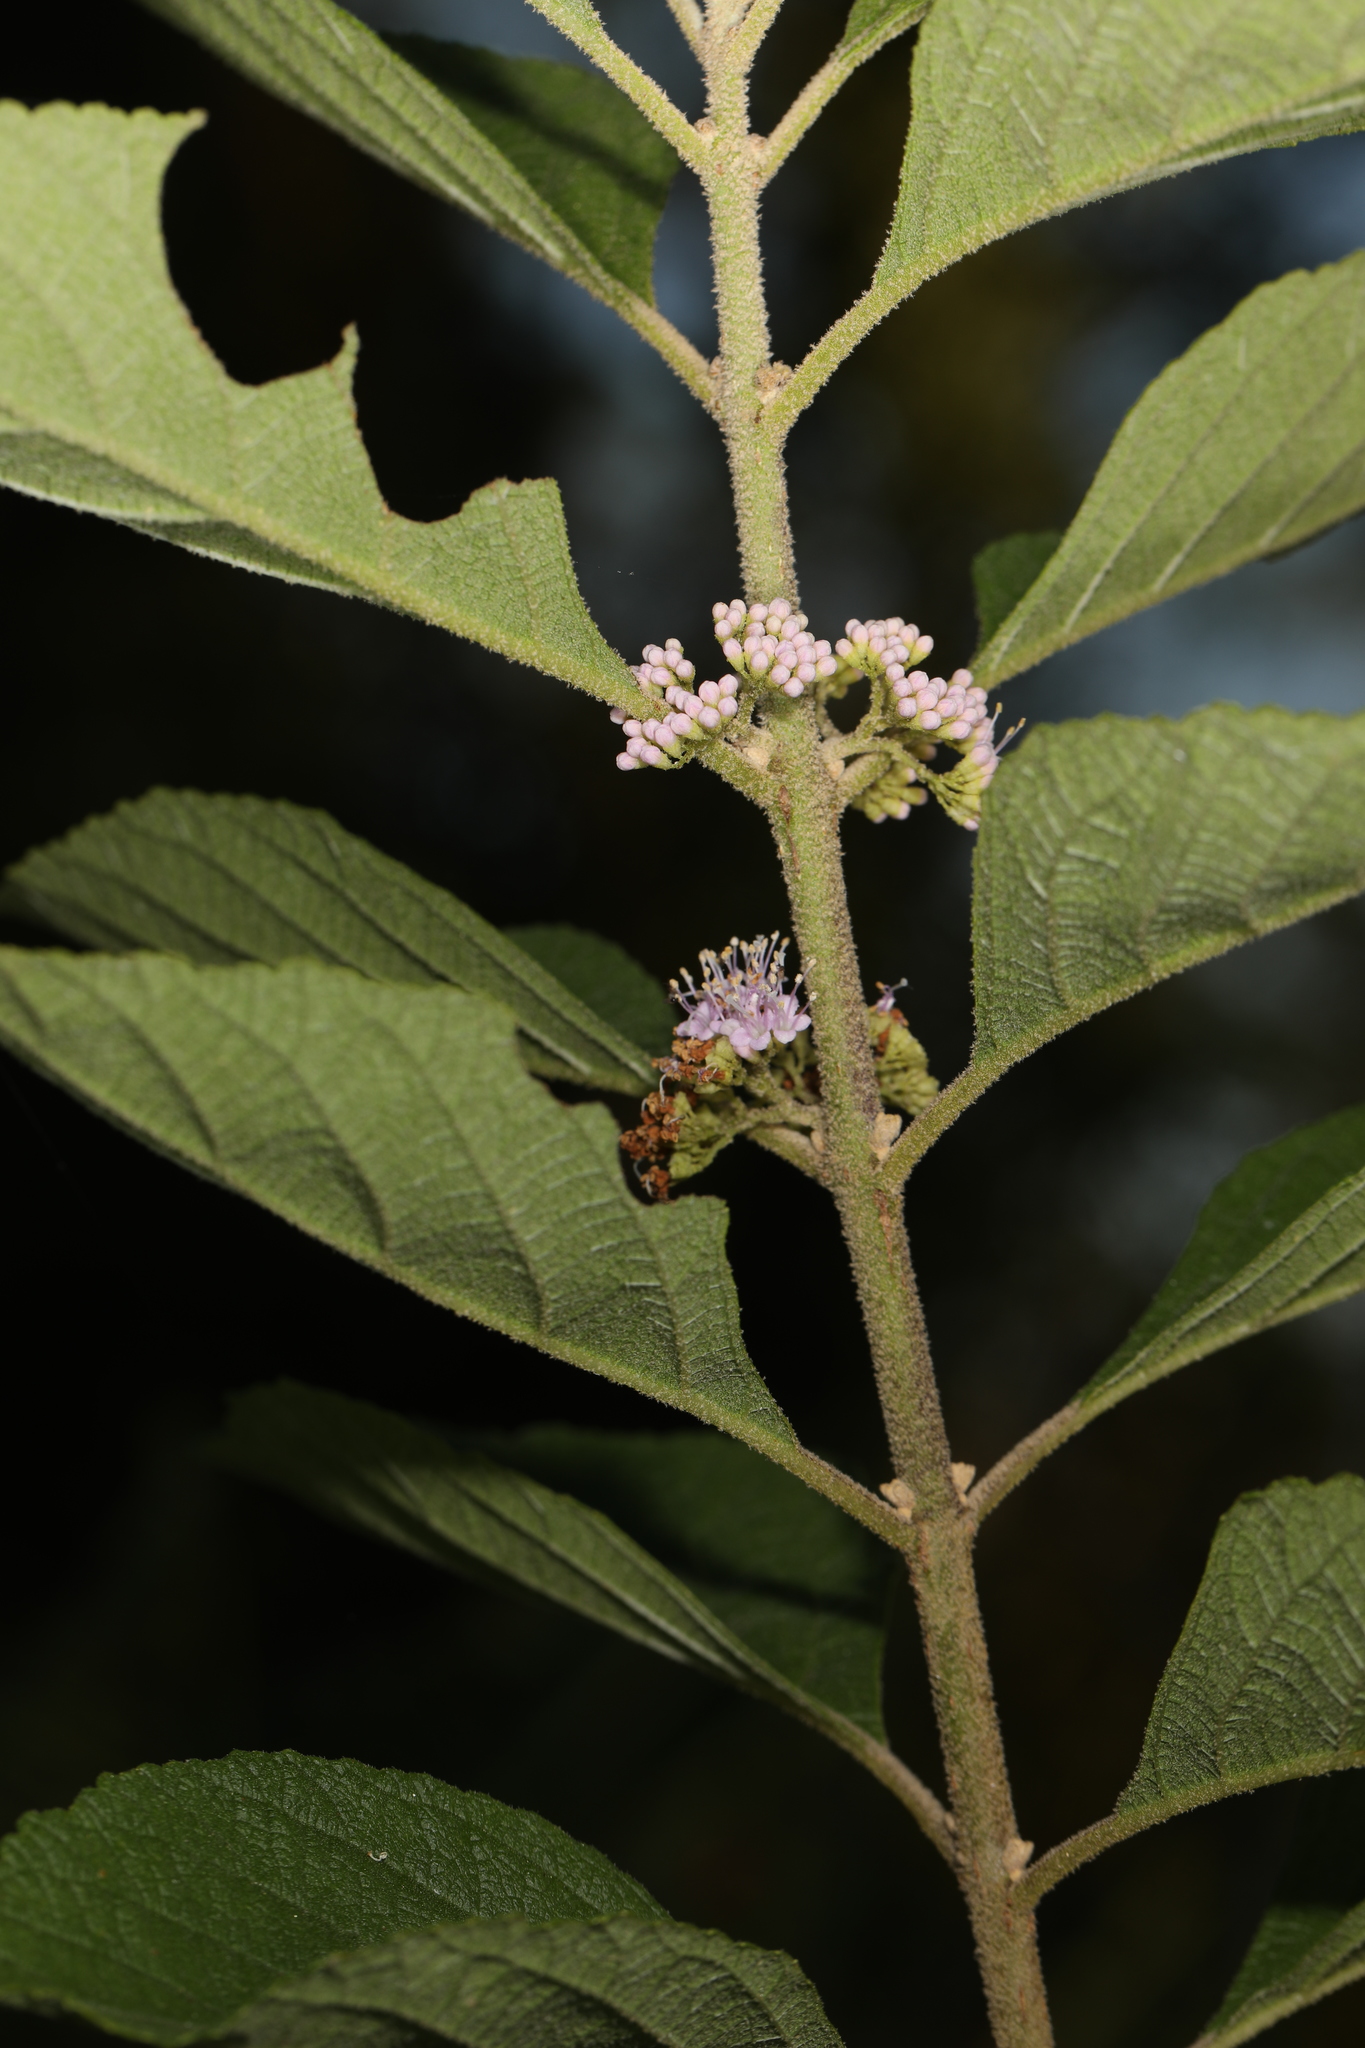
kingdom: Plantae
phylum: Tracheophyta
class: Magnoliopsida
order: Lamiales
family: Lamiaceae
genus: Callicarpa
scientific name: Callicarpa americana
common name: American beautyberry
